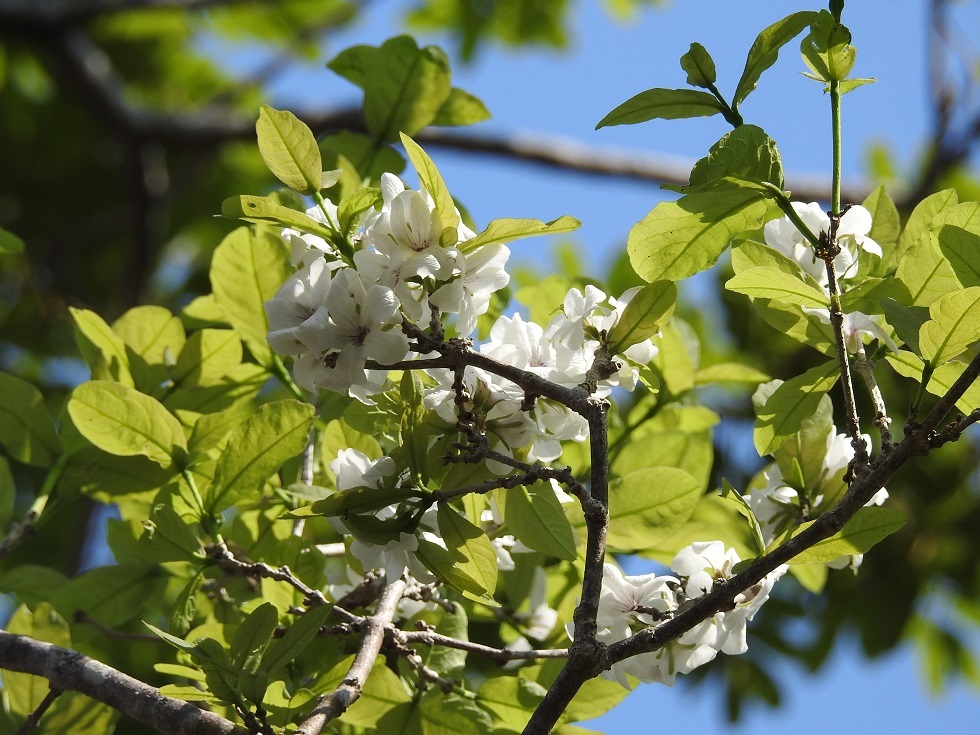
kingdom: Plantae
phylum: Tracheophyta
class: Magnoliopsida
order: Lamiales
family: Verbenaceae
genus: Petrea
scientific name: Petrea asperifolia
